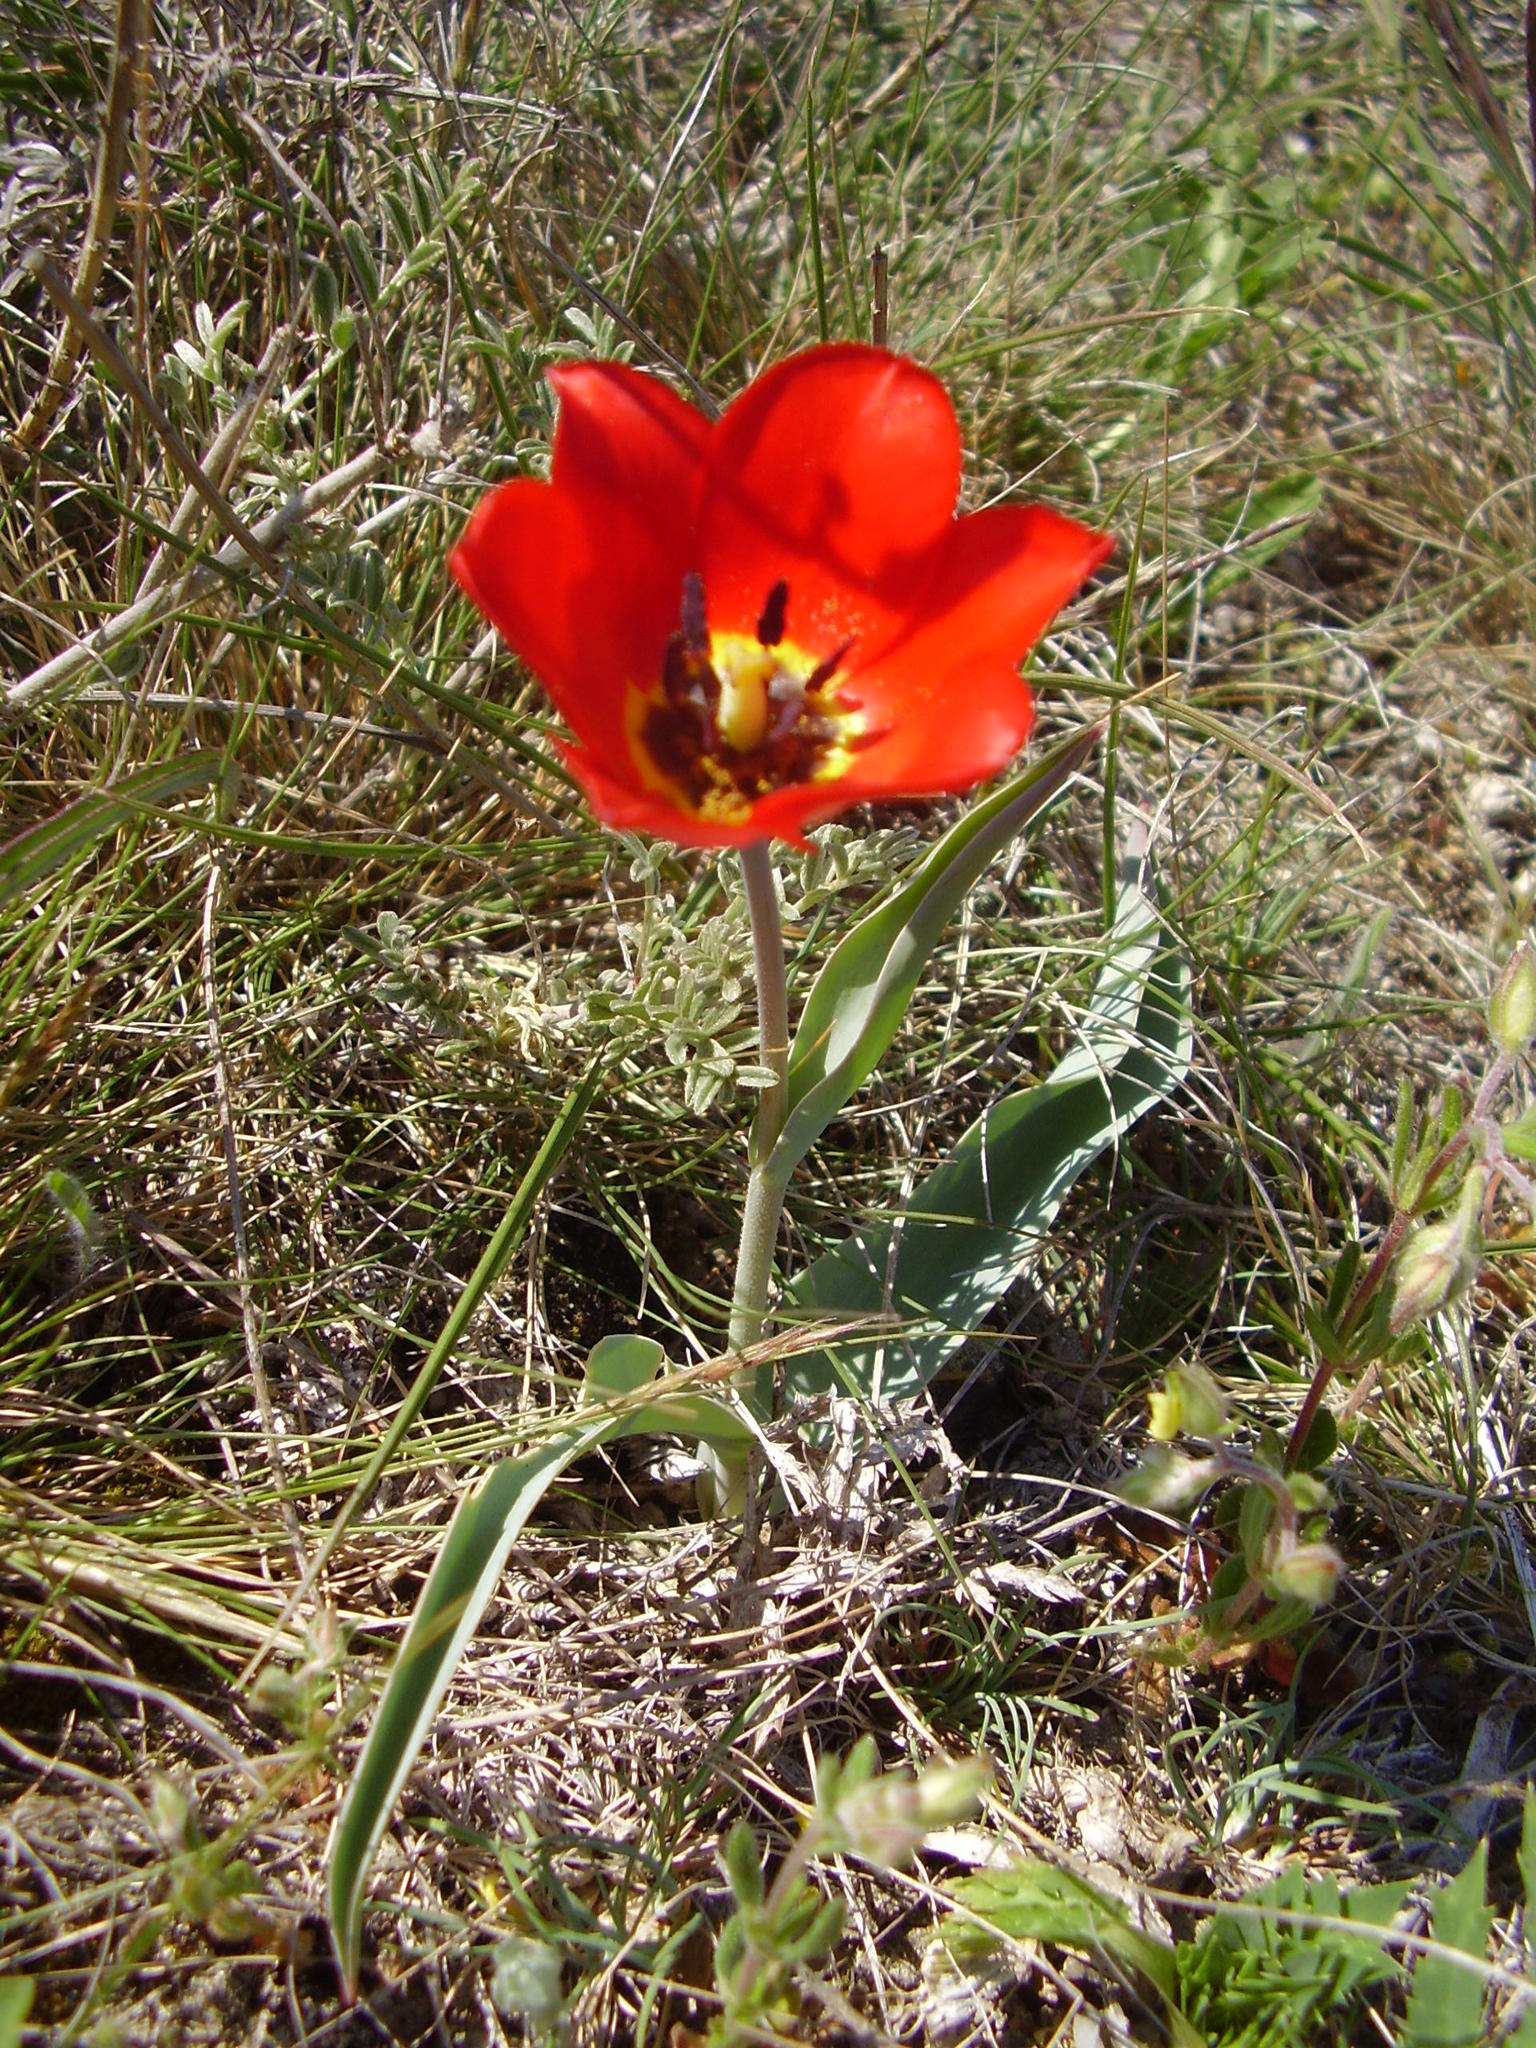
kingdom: Plantae
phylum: Tracheophyta
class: Liliopsida
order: Liliales
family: Liliaceae
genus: Tulipa
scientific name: Tulipa suaveolens
